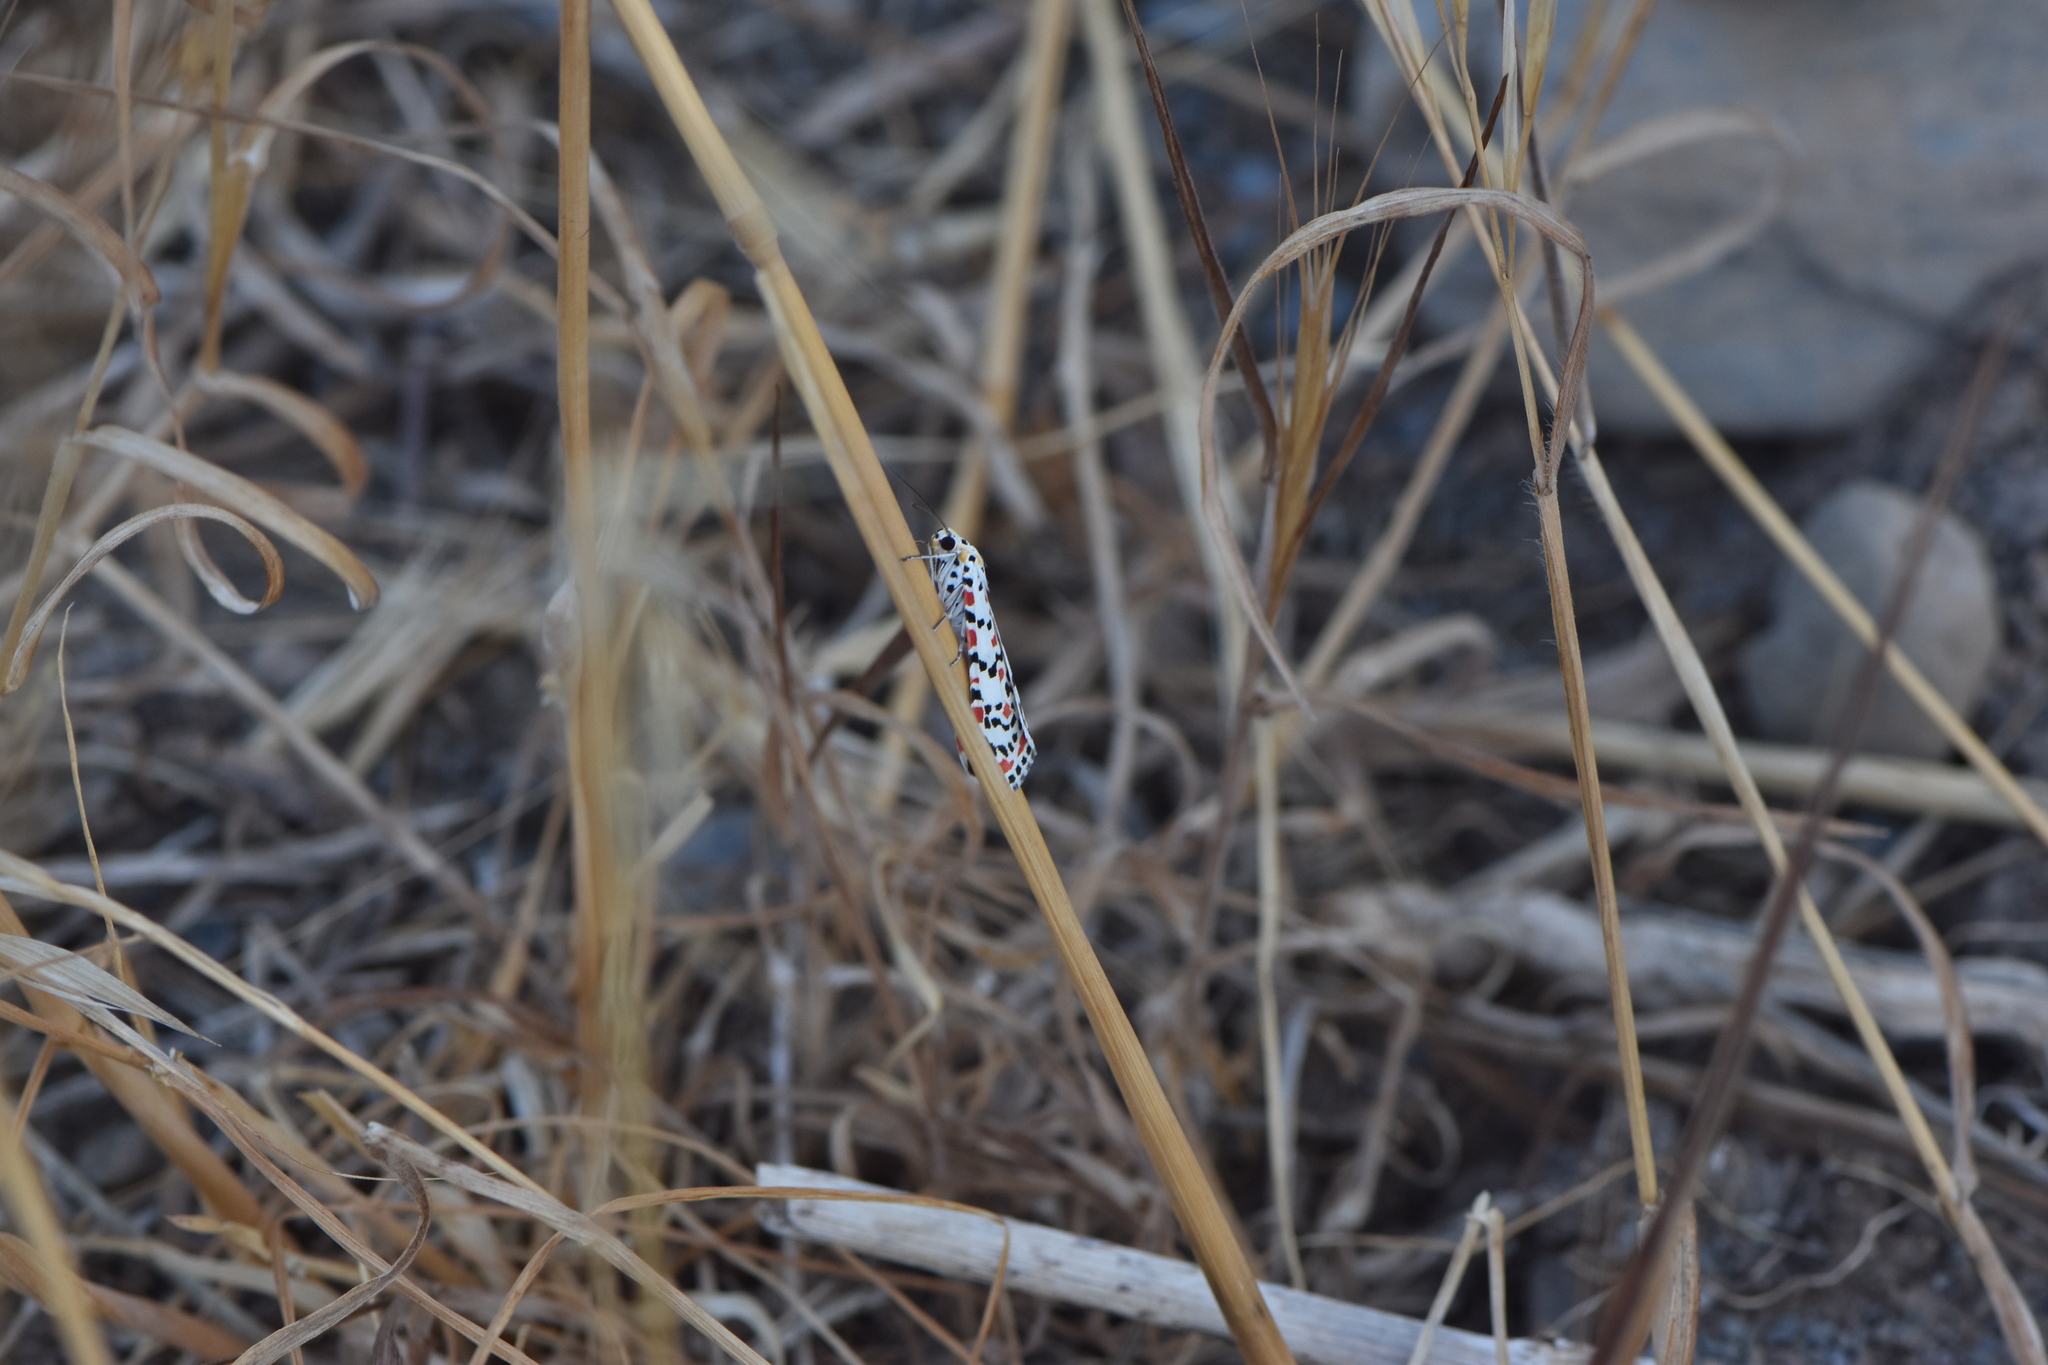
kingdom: Animalia
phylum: Arthropoda
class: Insecta
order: Lepidoptera
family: Erebidae
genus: Utetheisa
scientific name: Utetheisa pulchella
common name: Crimson speckled
